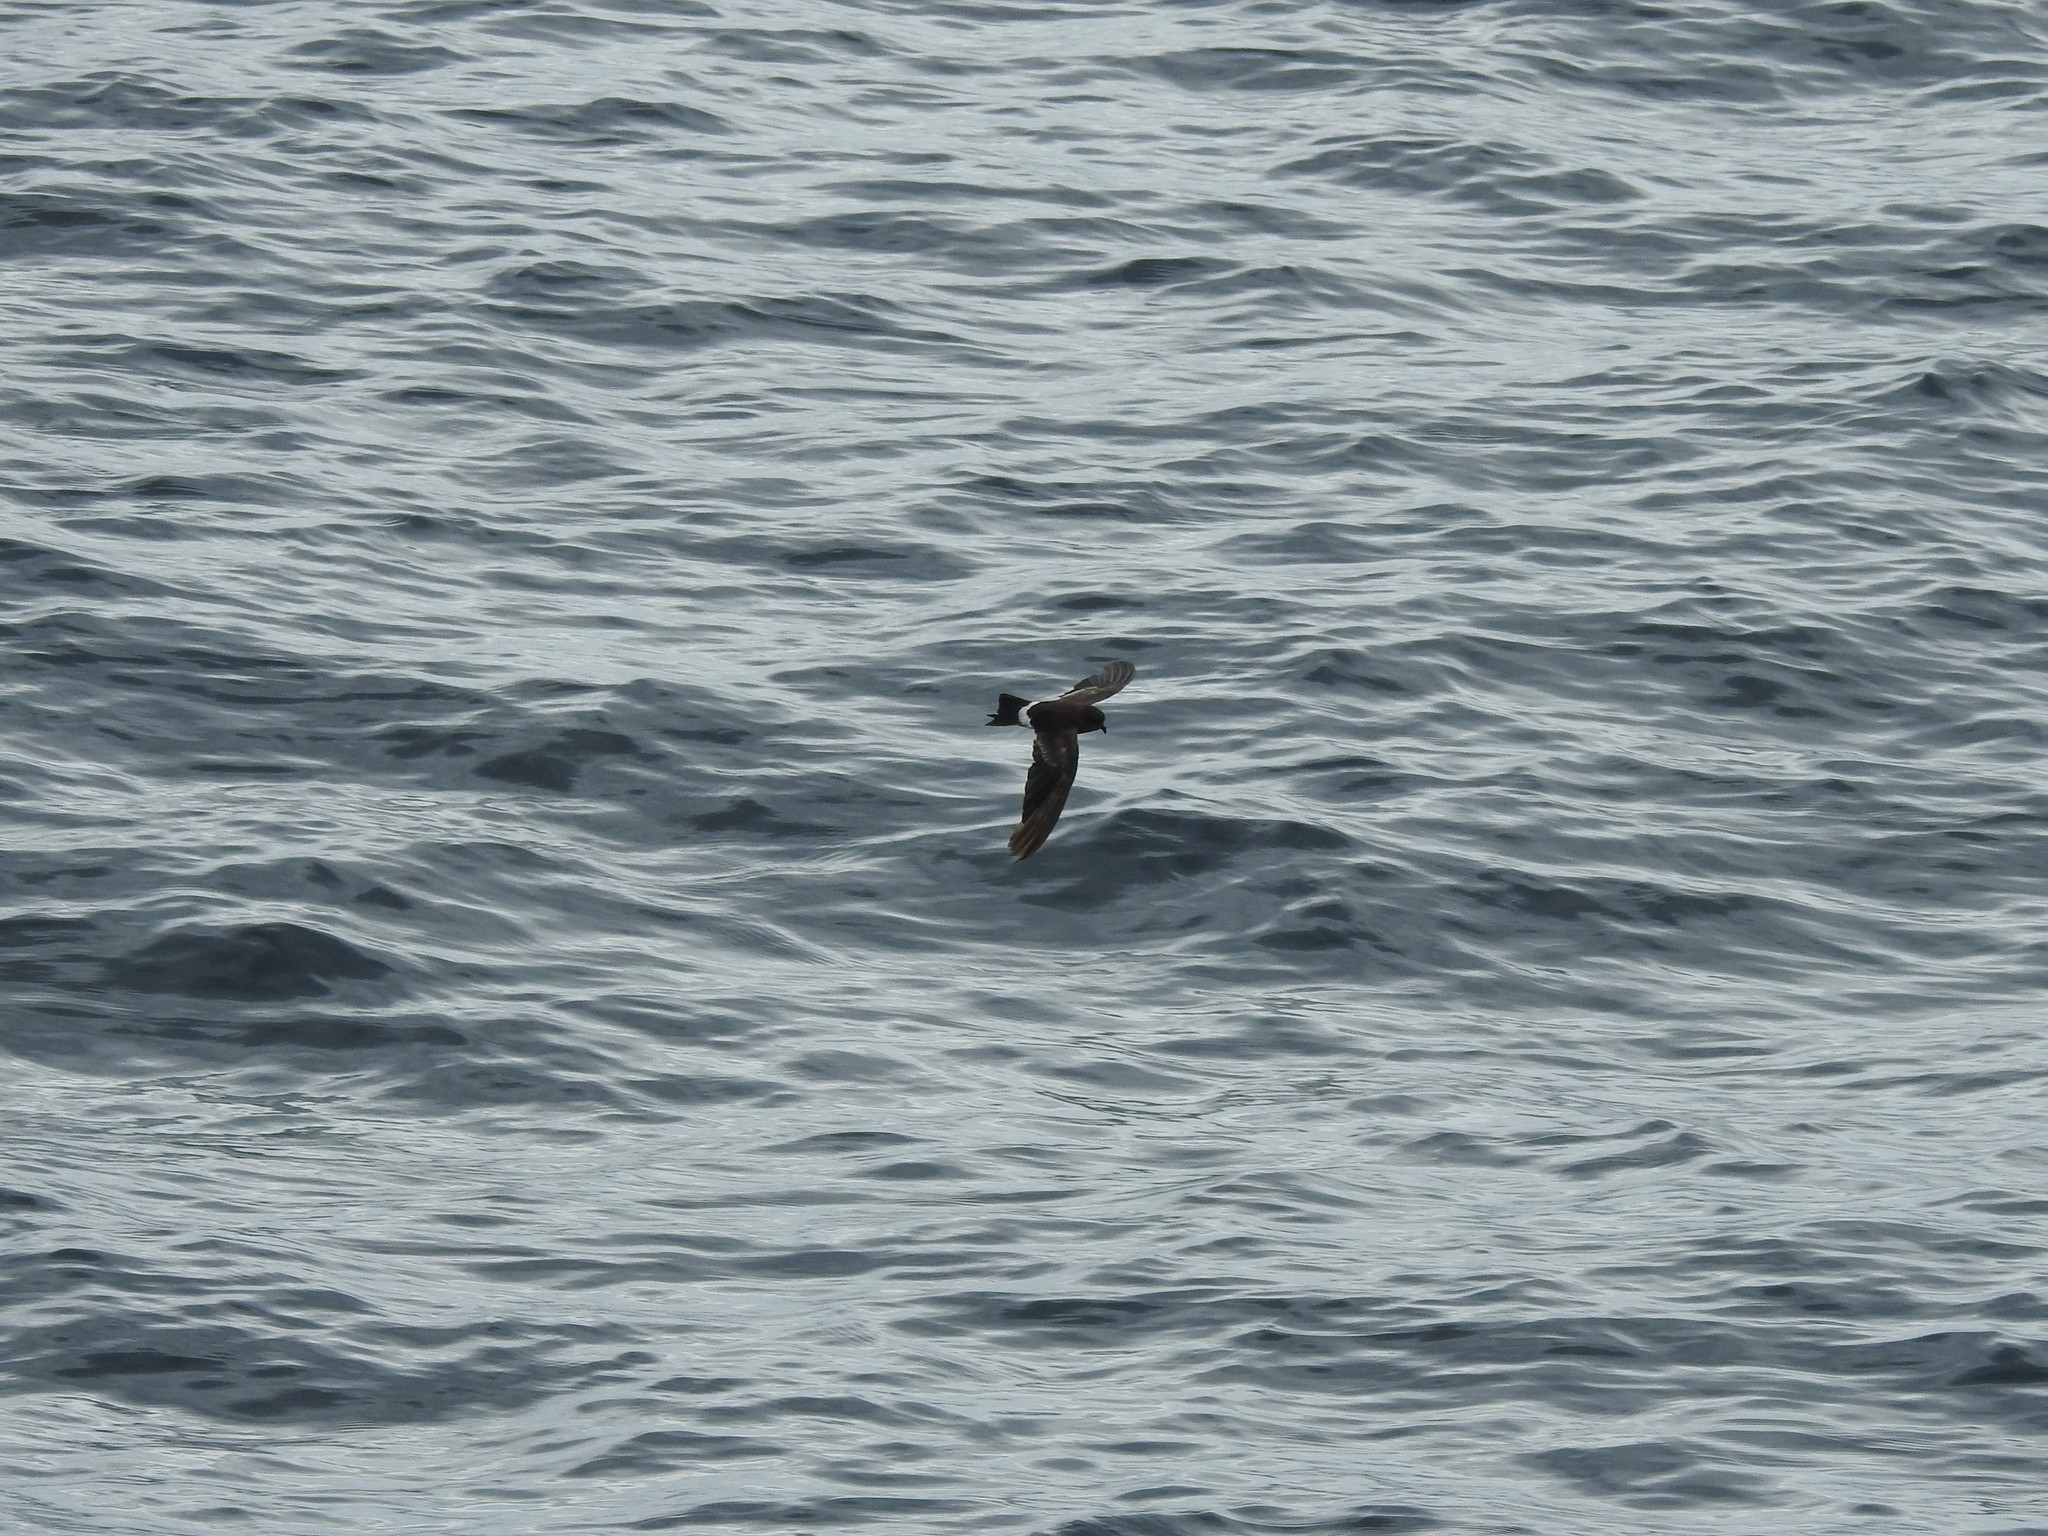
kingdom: Animalia
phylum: Chordata
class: Aves
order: Procellariiformes
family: Hydrobatidae
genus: Oceanites
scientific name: Oceanites gracilis
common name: Elliot's storm-petrel
